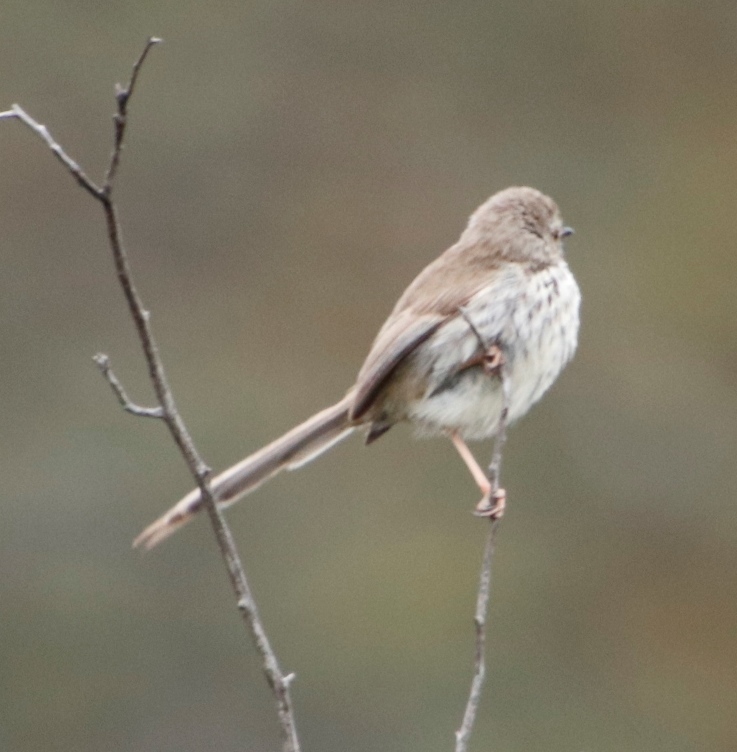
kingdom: Animalia
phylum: Chordata
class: Aves
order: Passeriformes
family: Cisticolidae
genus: Prinia
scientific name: Prinia maculosa
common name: Karoo prinia
